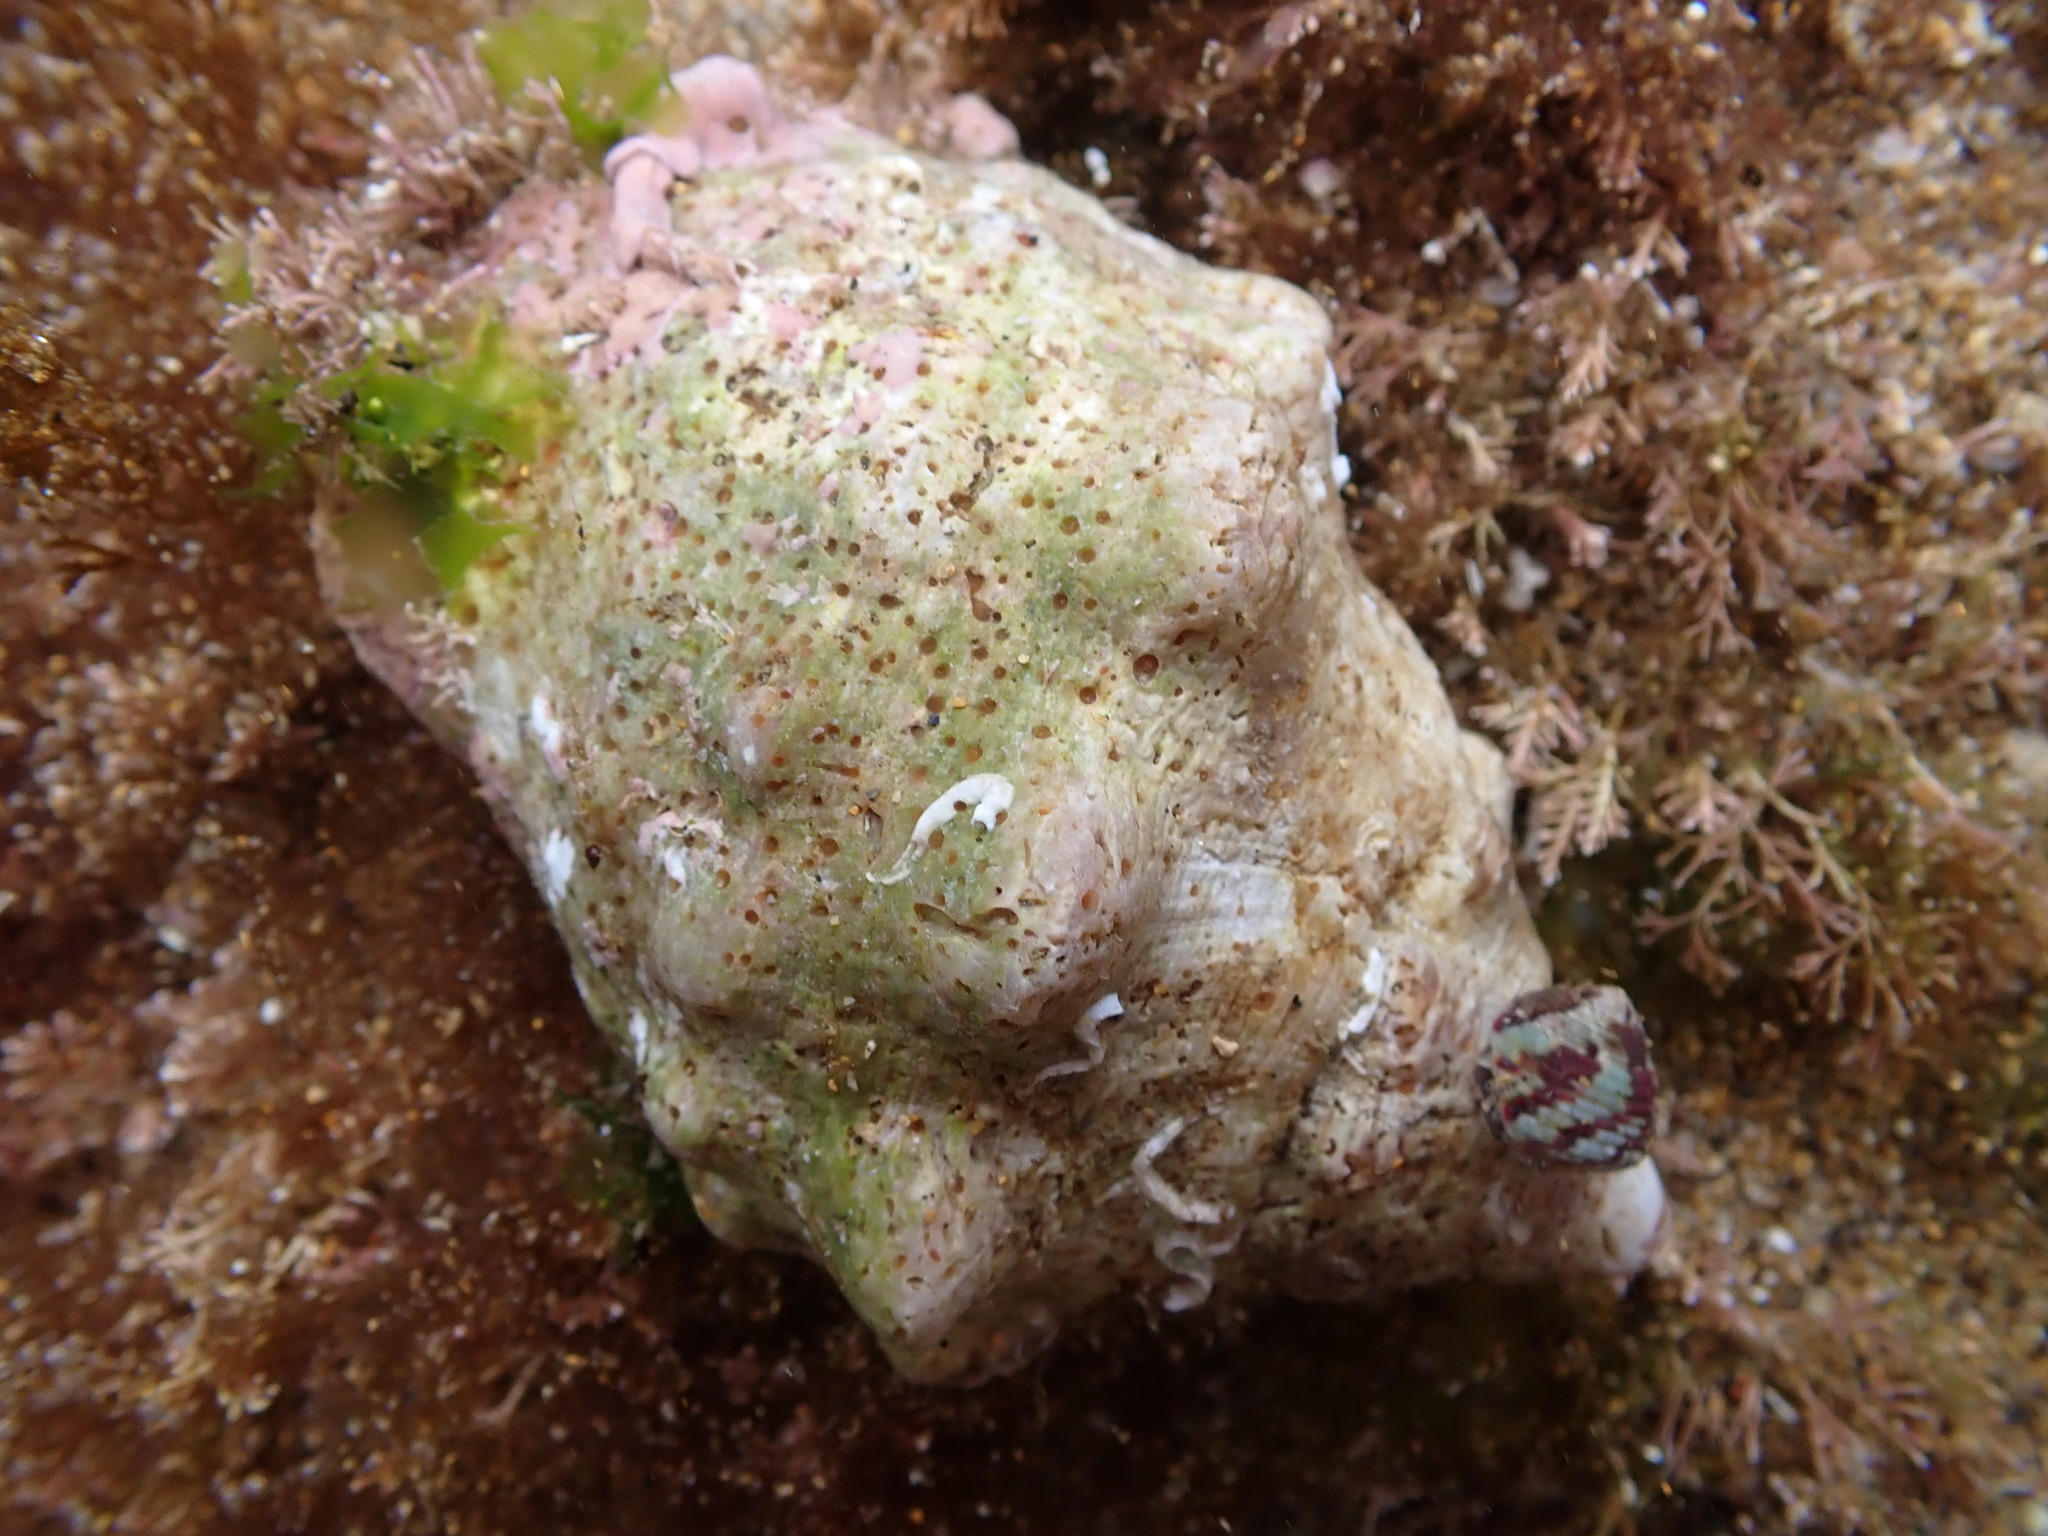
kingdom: Animalia
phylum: Mollusca
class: Gastropoda
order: Neogastropoda
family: Muricidae
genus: Stramonita
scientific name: Stramonita haemastoma
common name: Florida dog winkle
